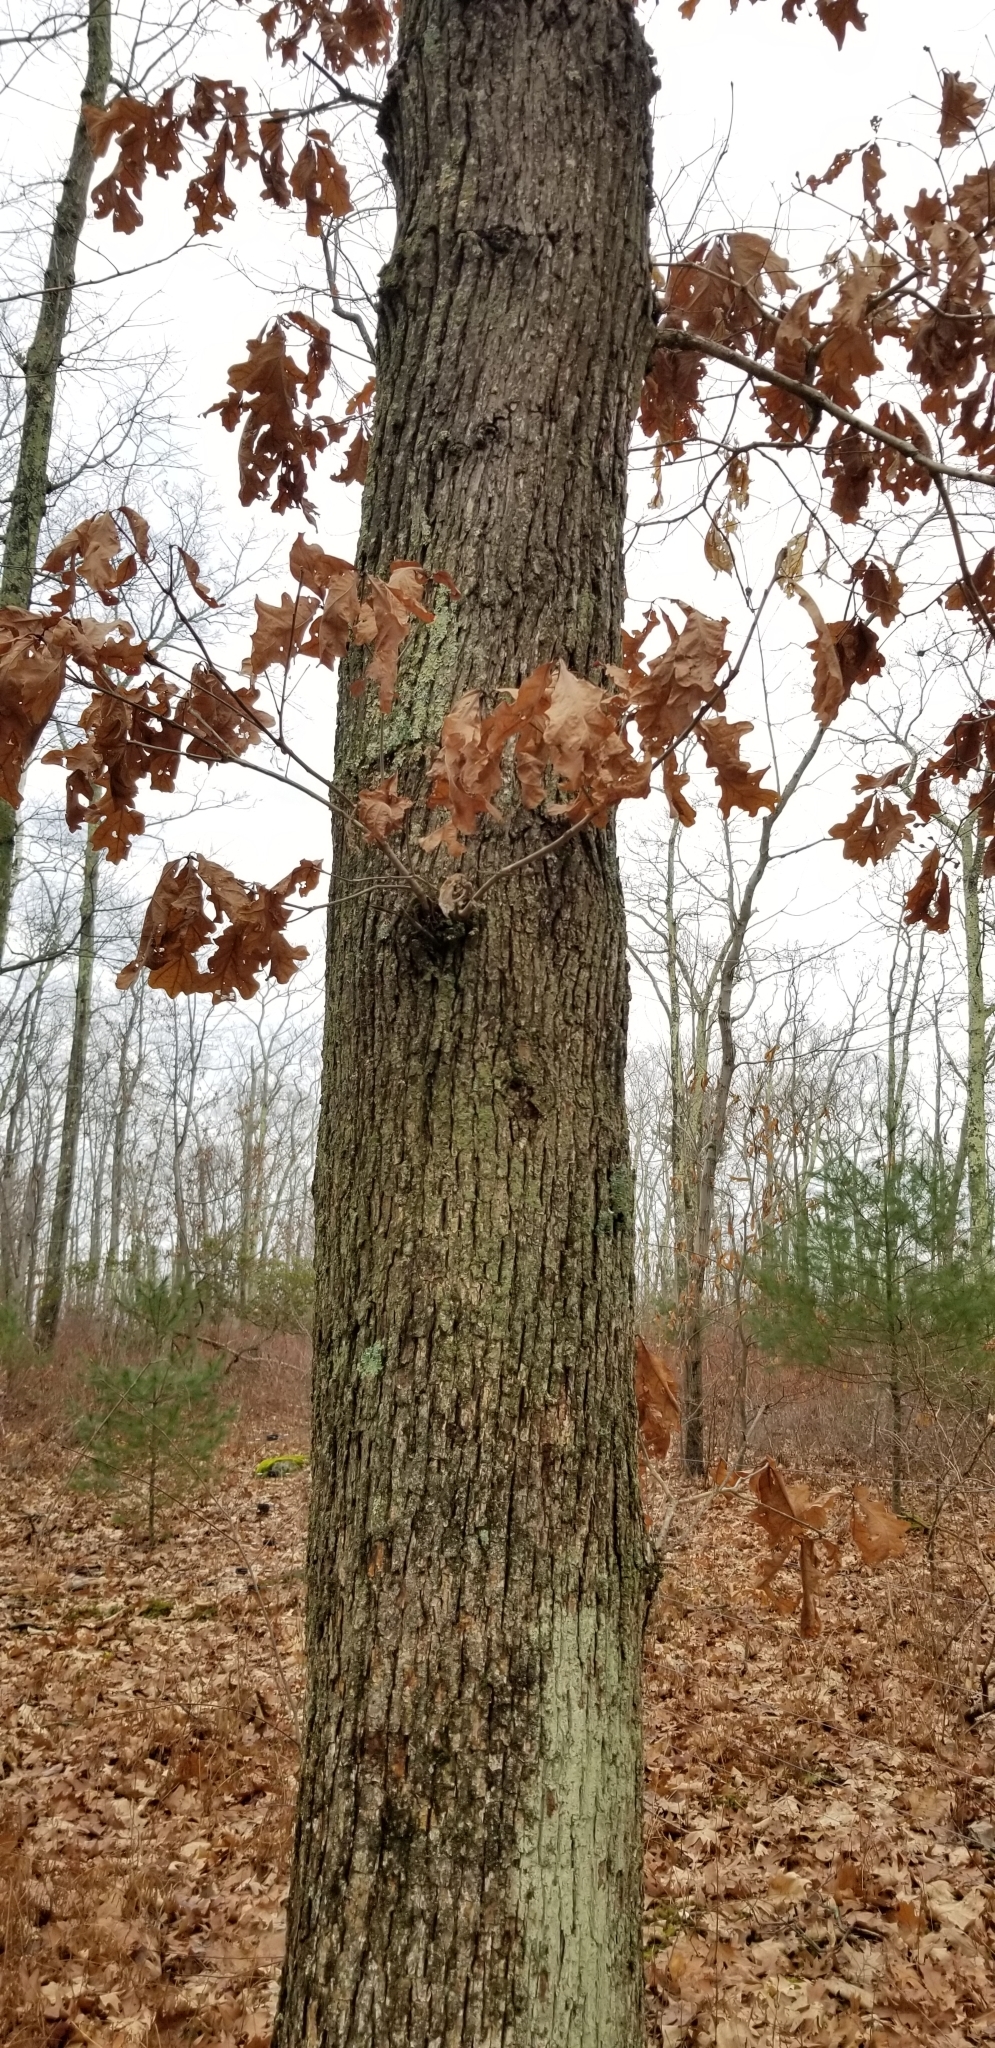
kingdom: Plantae
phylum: Tracheophyta
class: Magnoliopsida
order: Fagales
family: Fagaceae
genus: Quercus
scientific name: Quercus alba
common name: White oak
